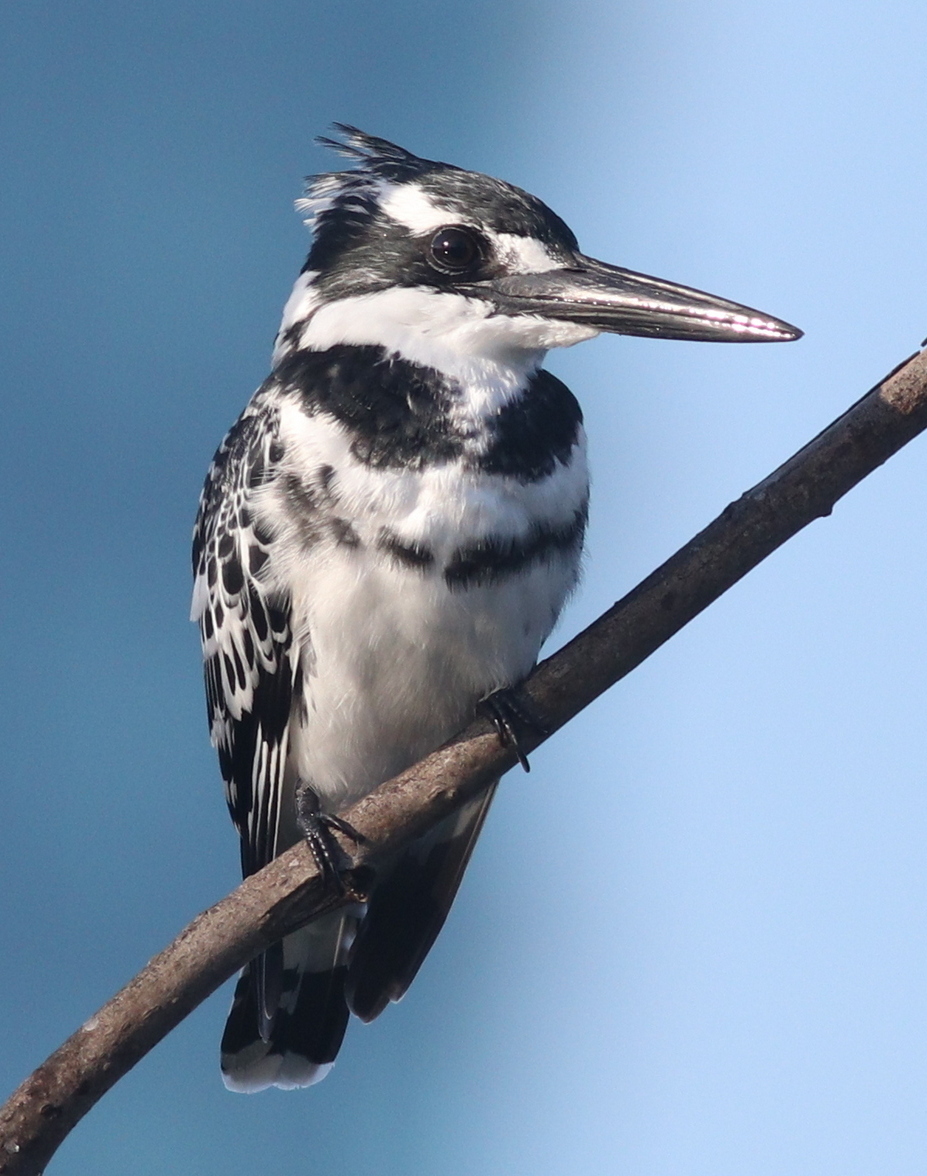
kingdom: Animalia
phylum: Chordata
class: Aves
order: Coraciiformes
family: Alcedinidae
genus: Ceryle
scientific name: Ceryle rudis
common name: Pied kingfisher
